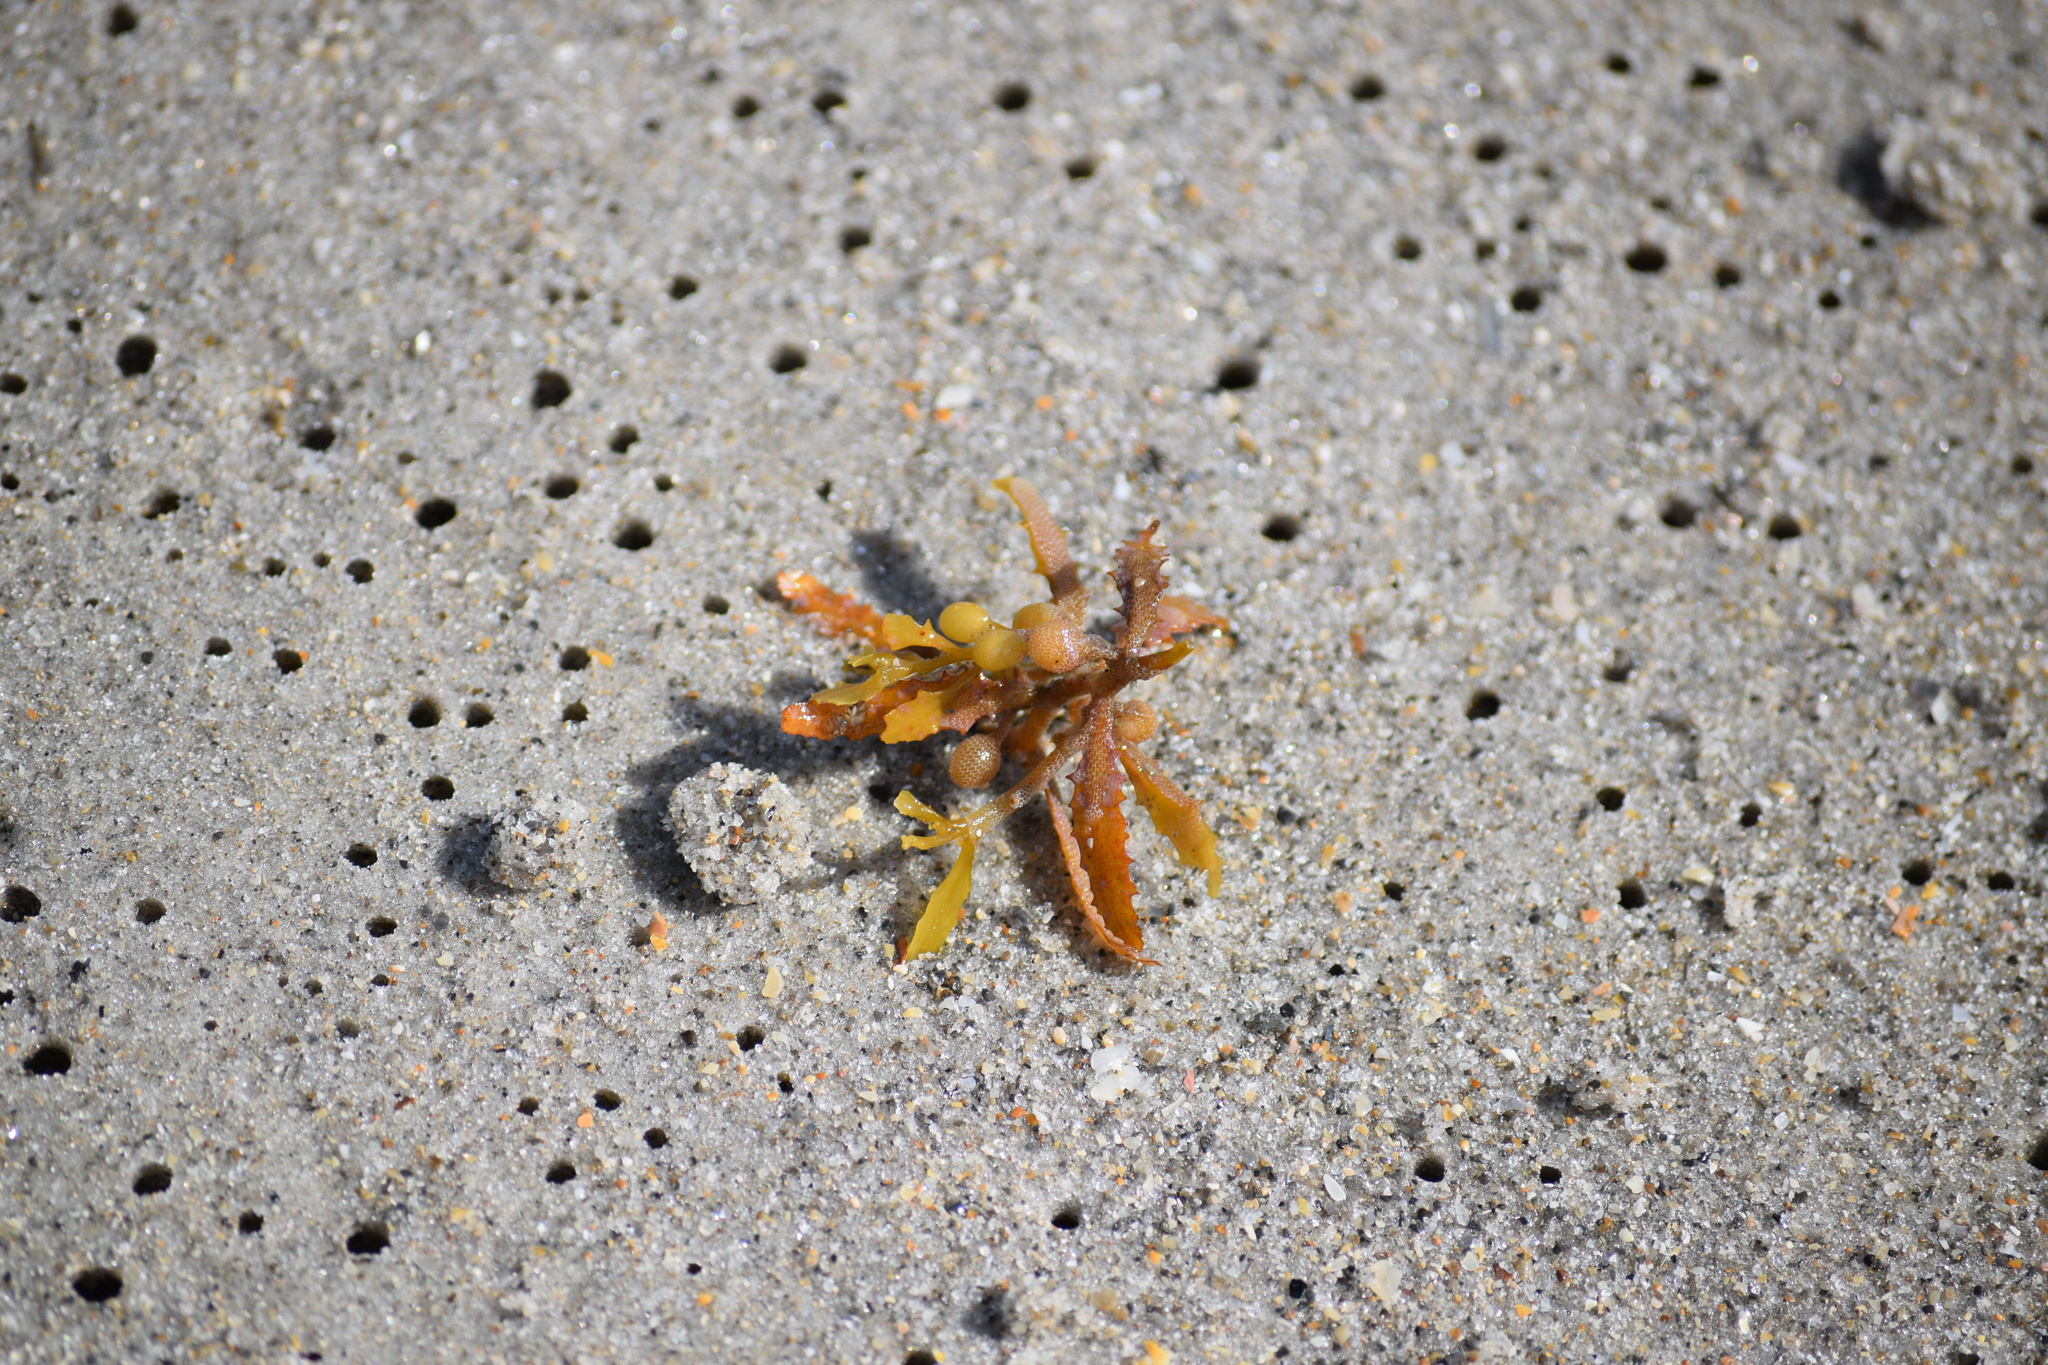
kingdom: Chromista
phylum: Ochrophyta
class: Phaeophyceae
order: Fucales
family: Sargassaceae
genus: Sargassum
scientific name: Sargassum fluitans
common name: Sargassum seaweed
